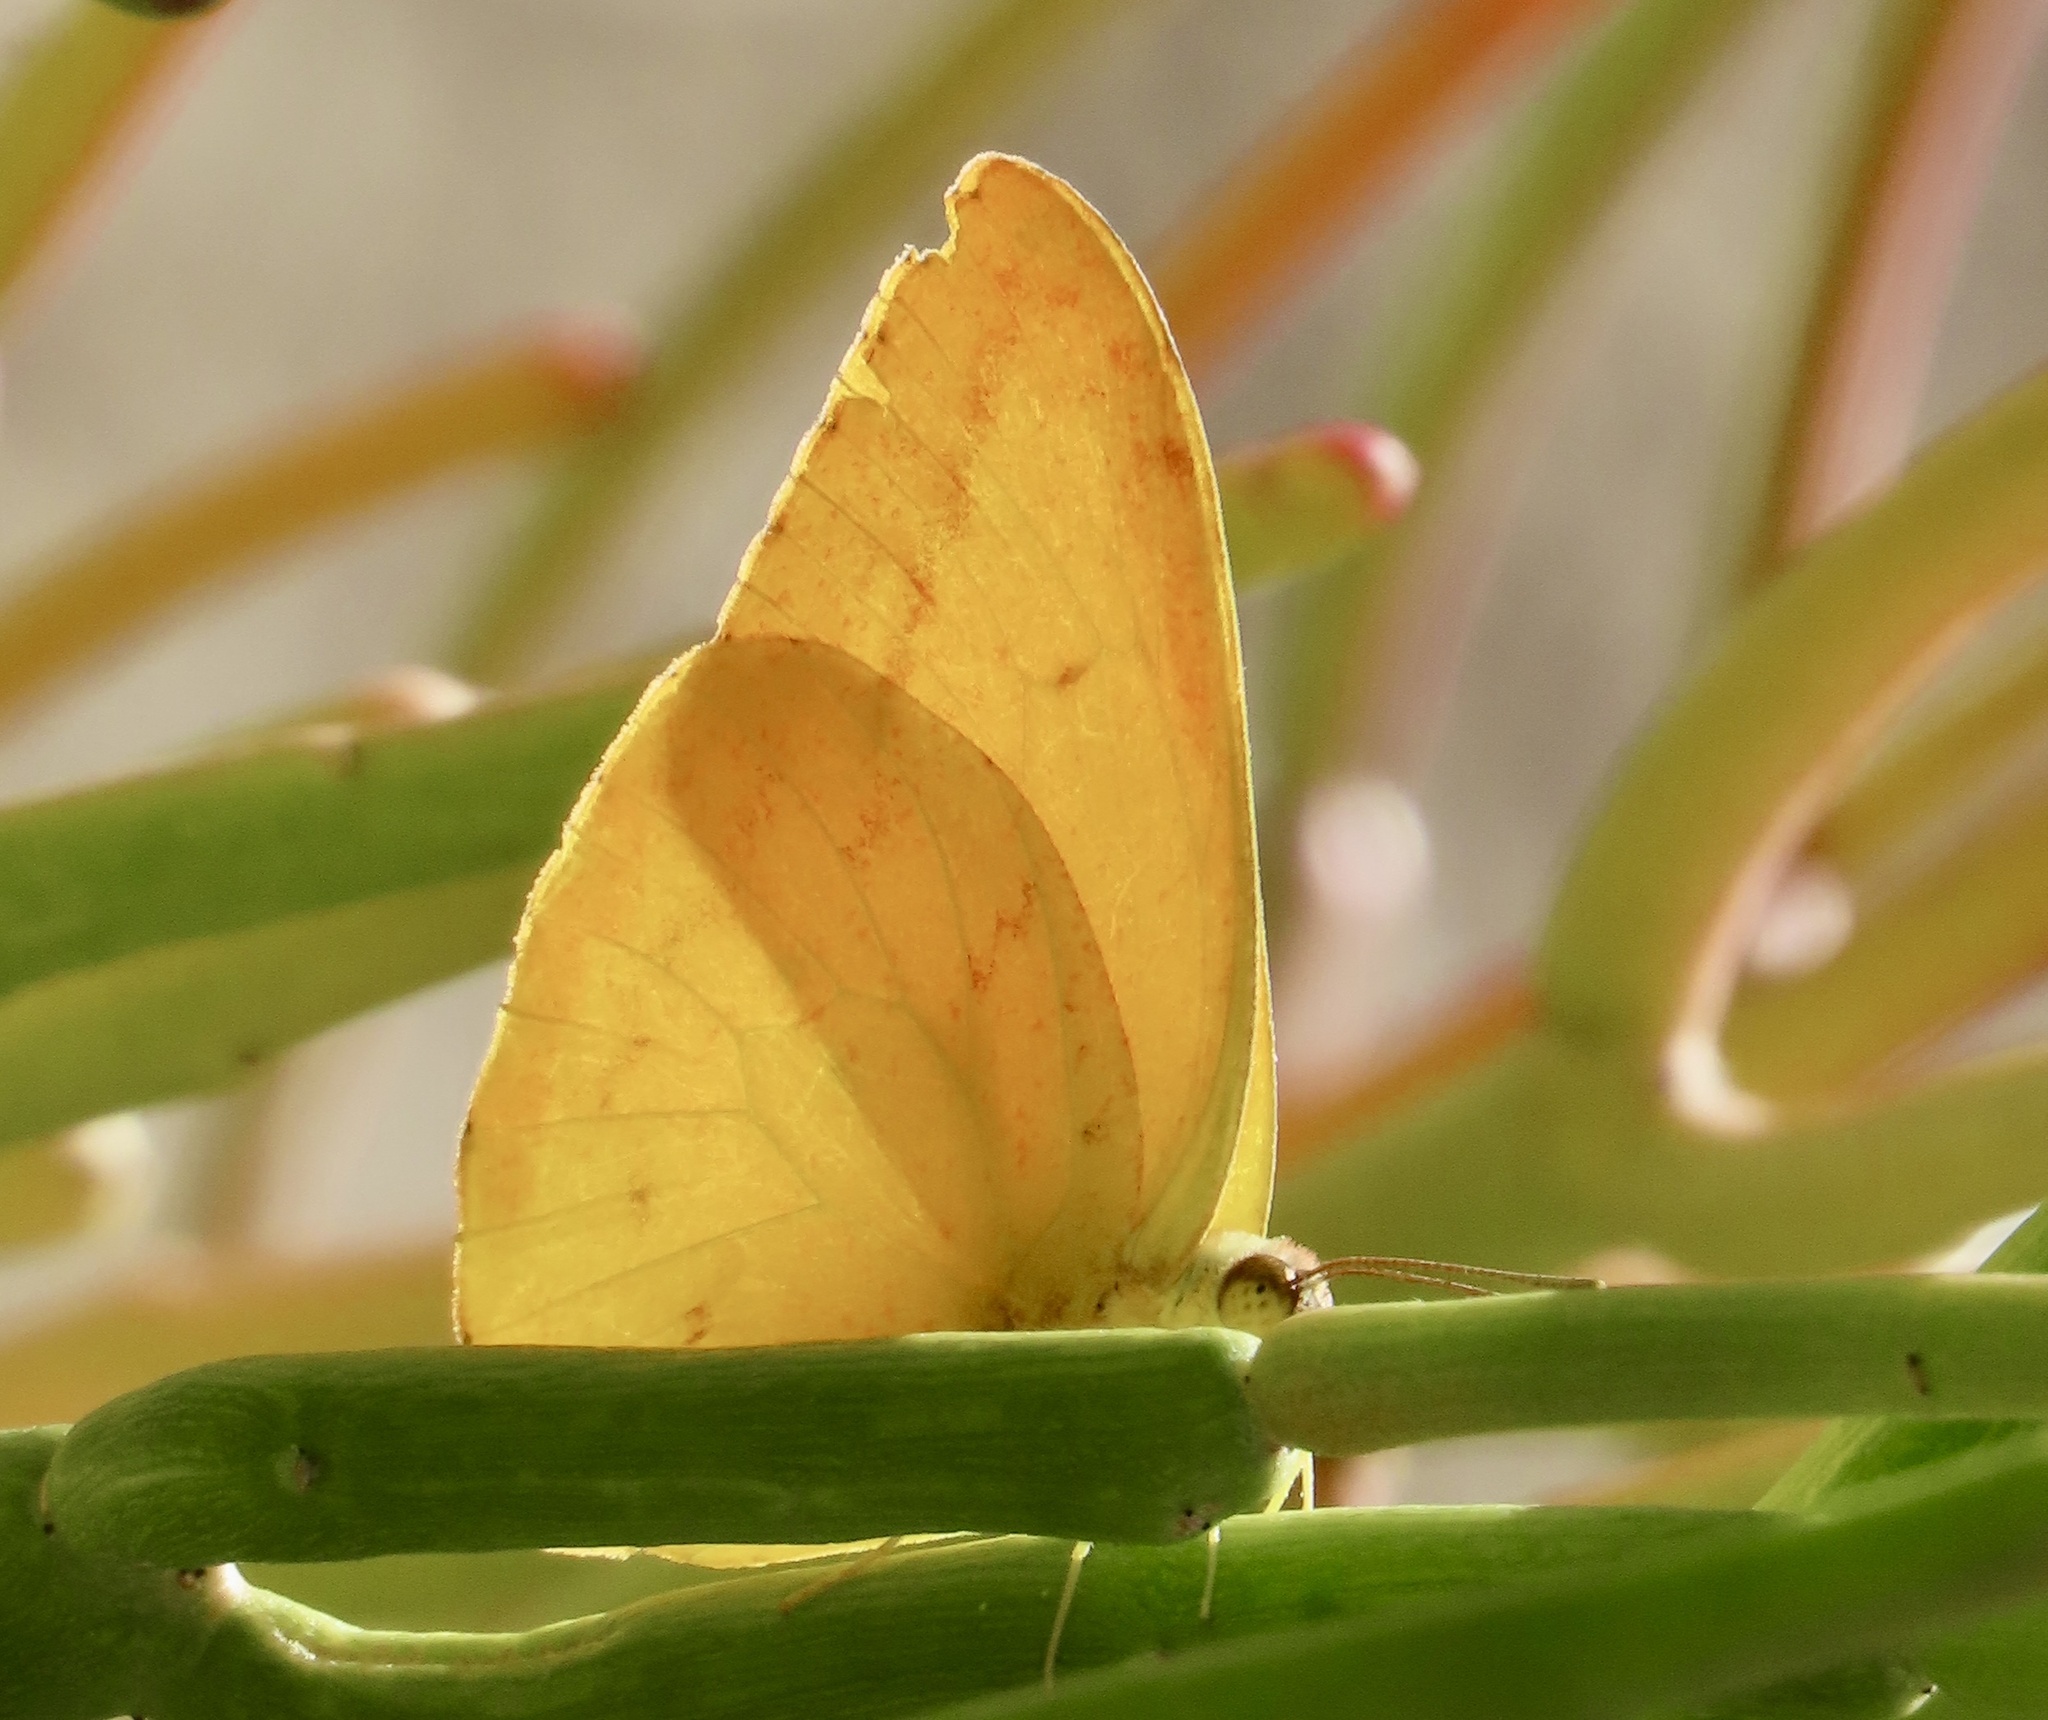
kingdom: Animalia
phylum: Arthropoda
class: Insecta
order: Lepidoptera
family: Pieridae
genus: Phoebis
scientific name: Phoebis agarithe
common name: Large orange sulphur
